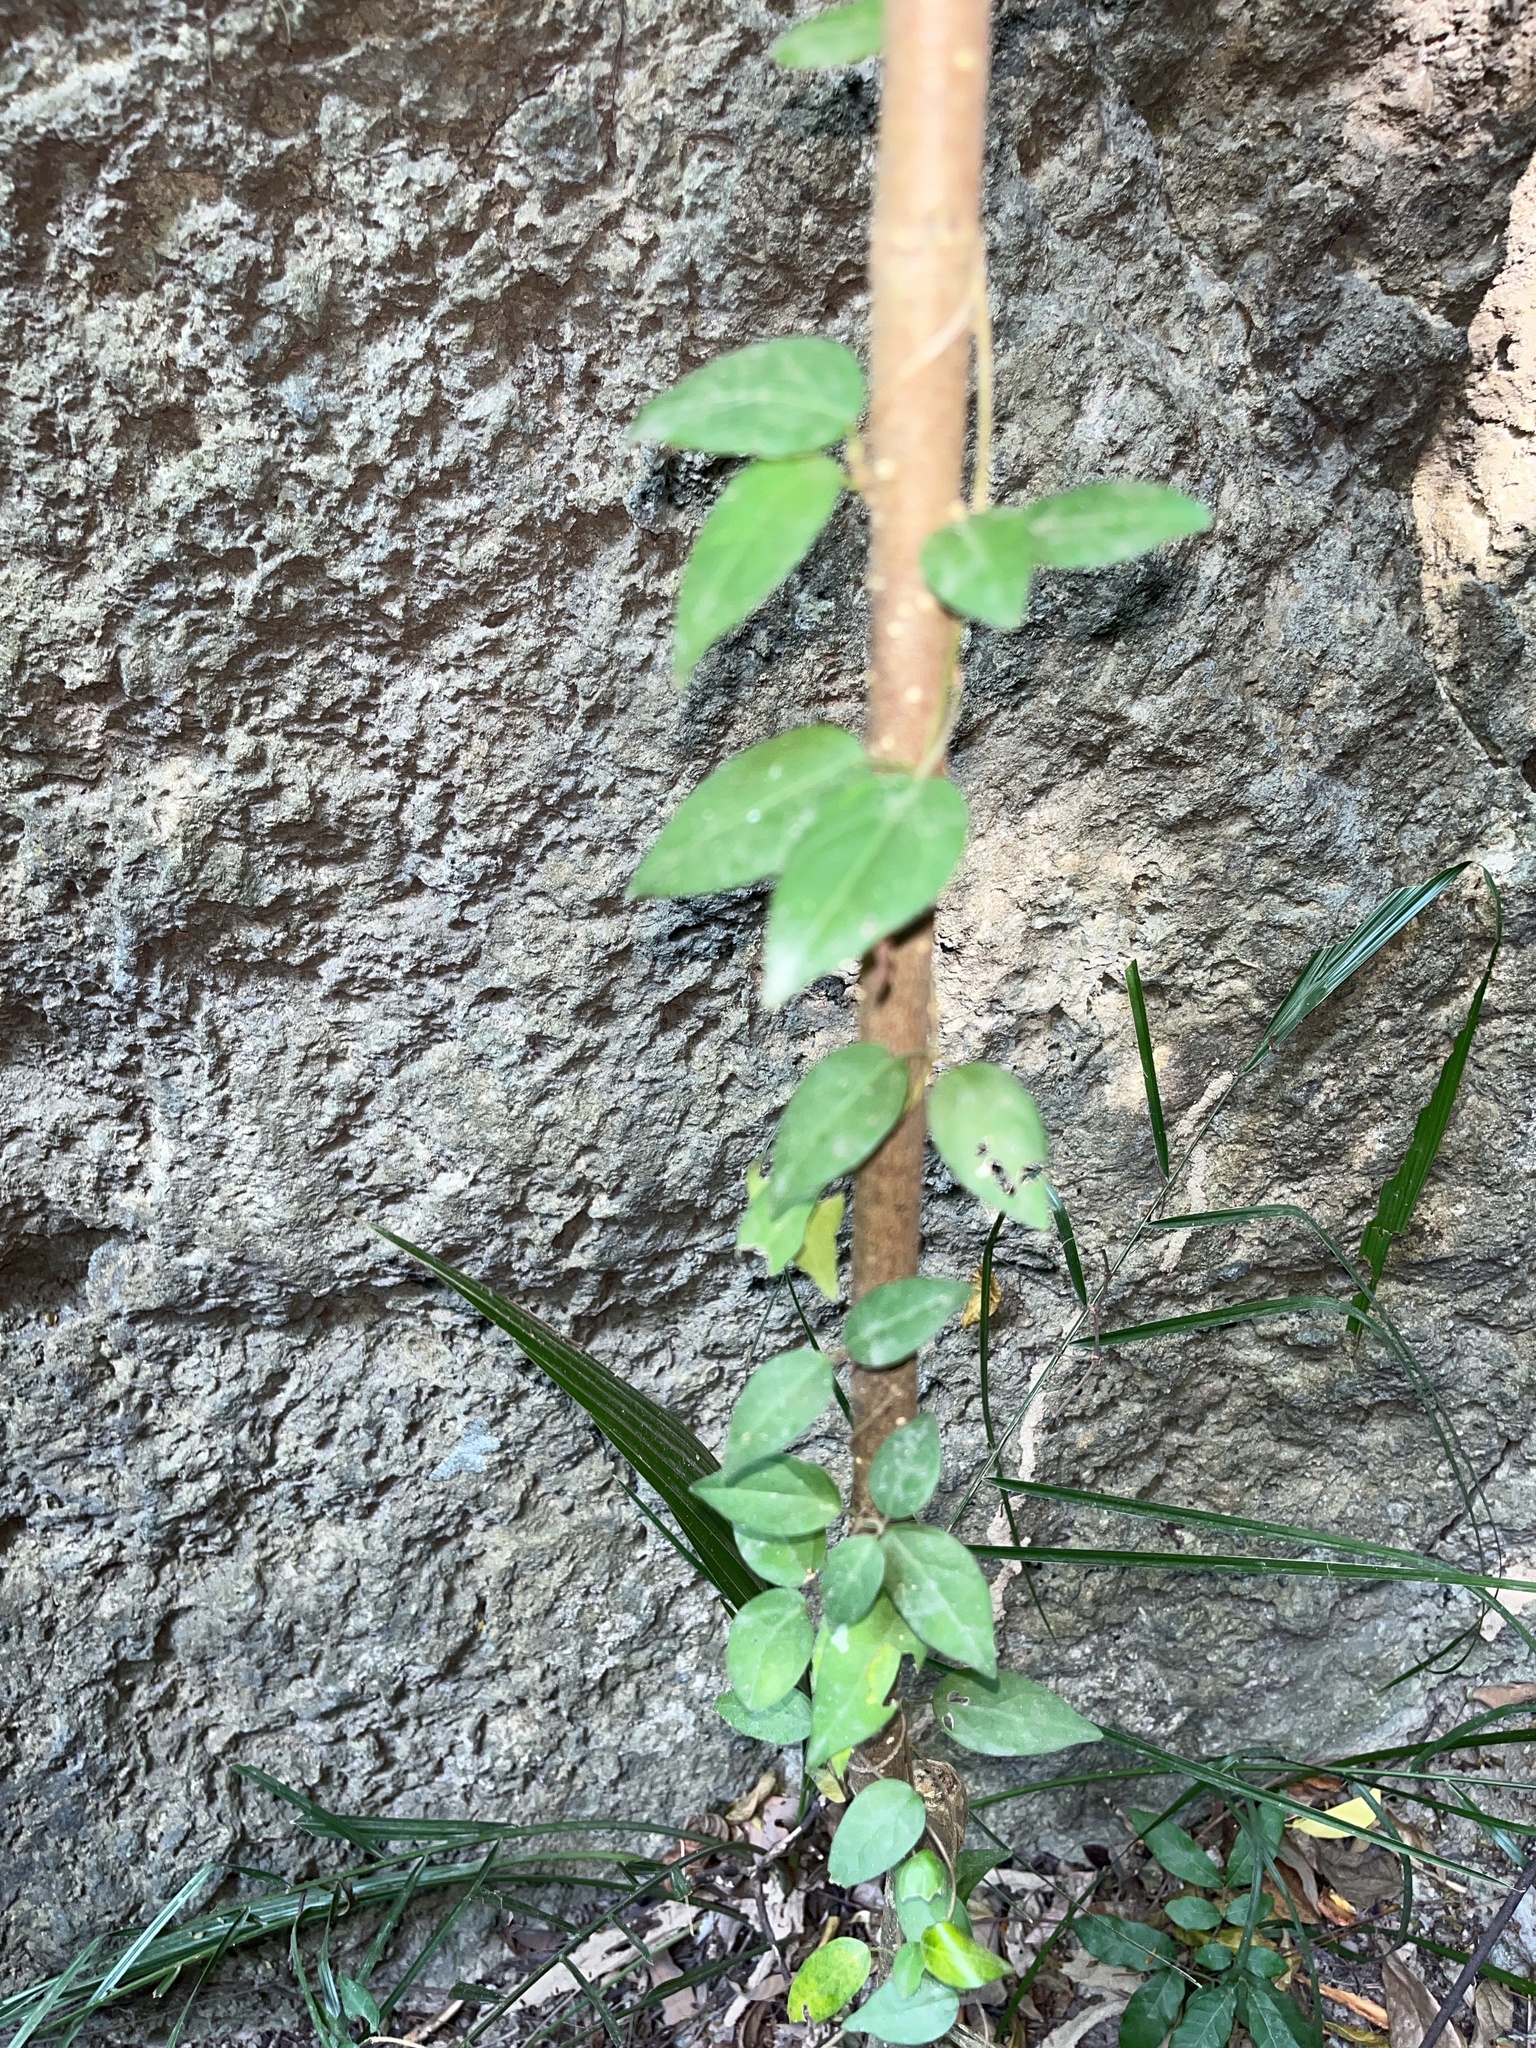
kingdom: Plantae
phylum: Tracheophyta
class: Magnoliopsida
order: Gentianales
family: Rubiaceae
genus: Paederia
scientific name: Paederia foetida
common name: Stinkvine
